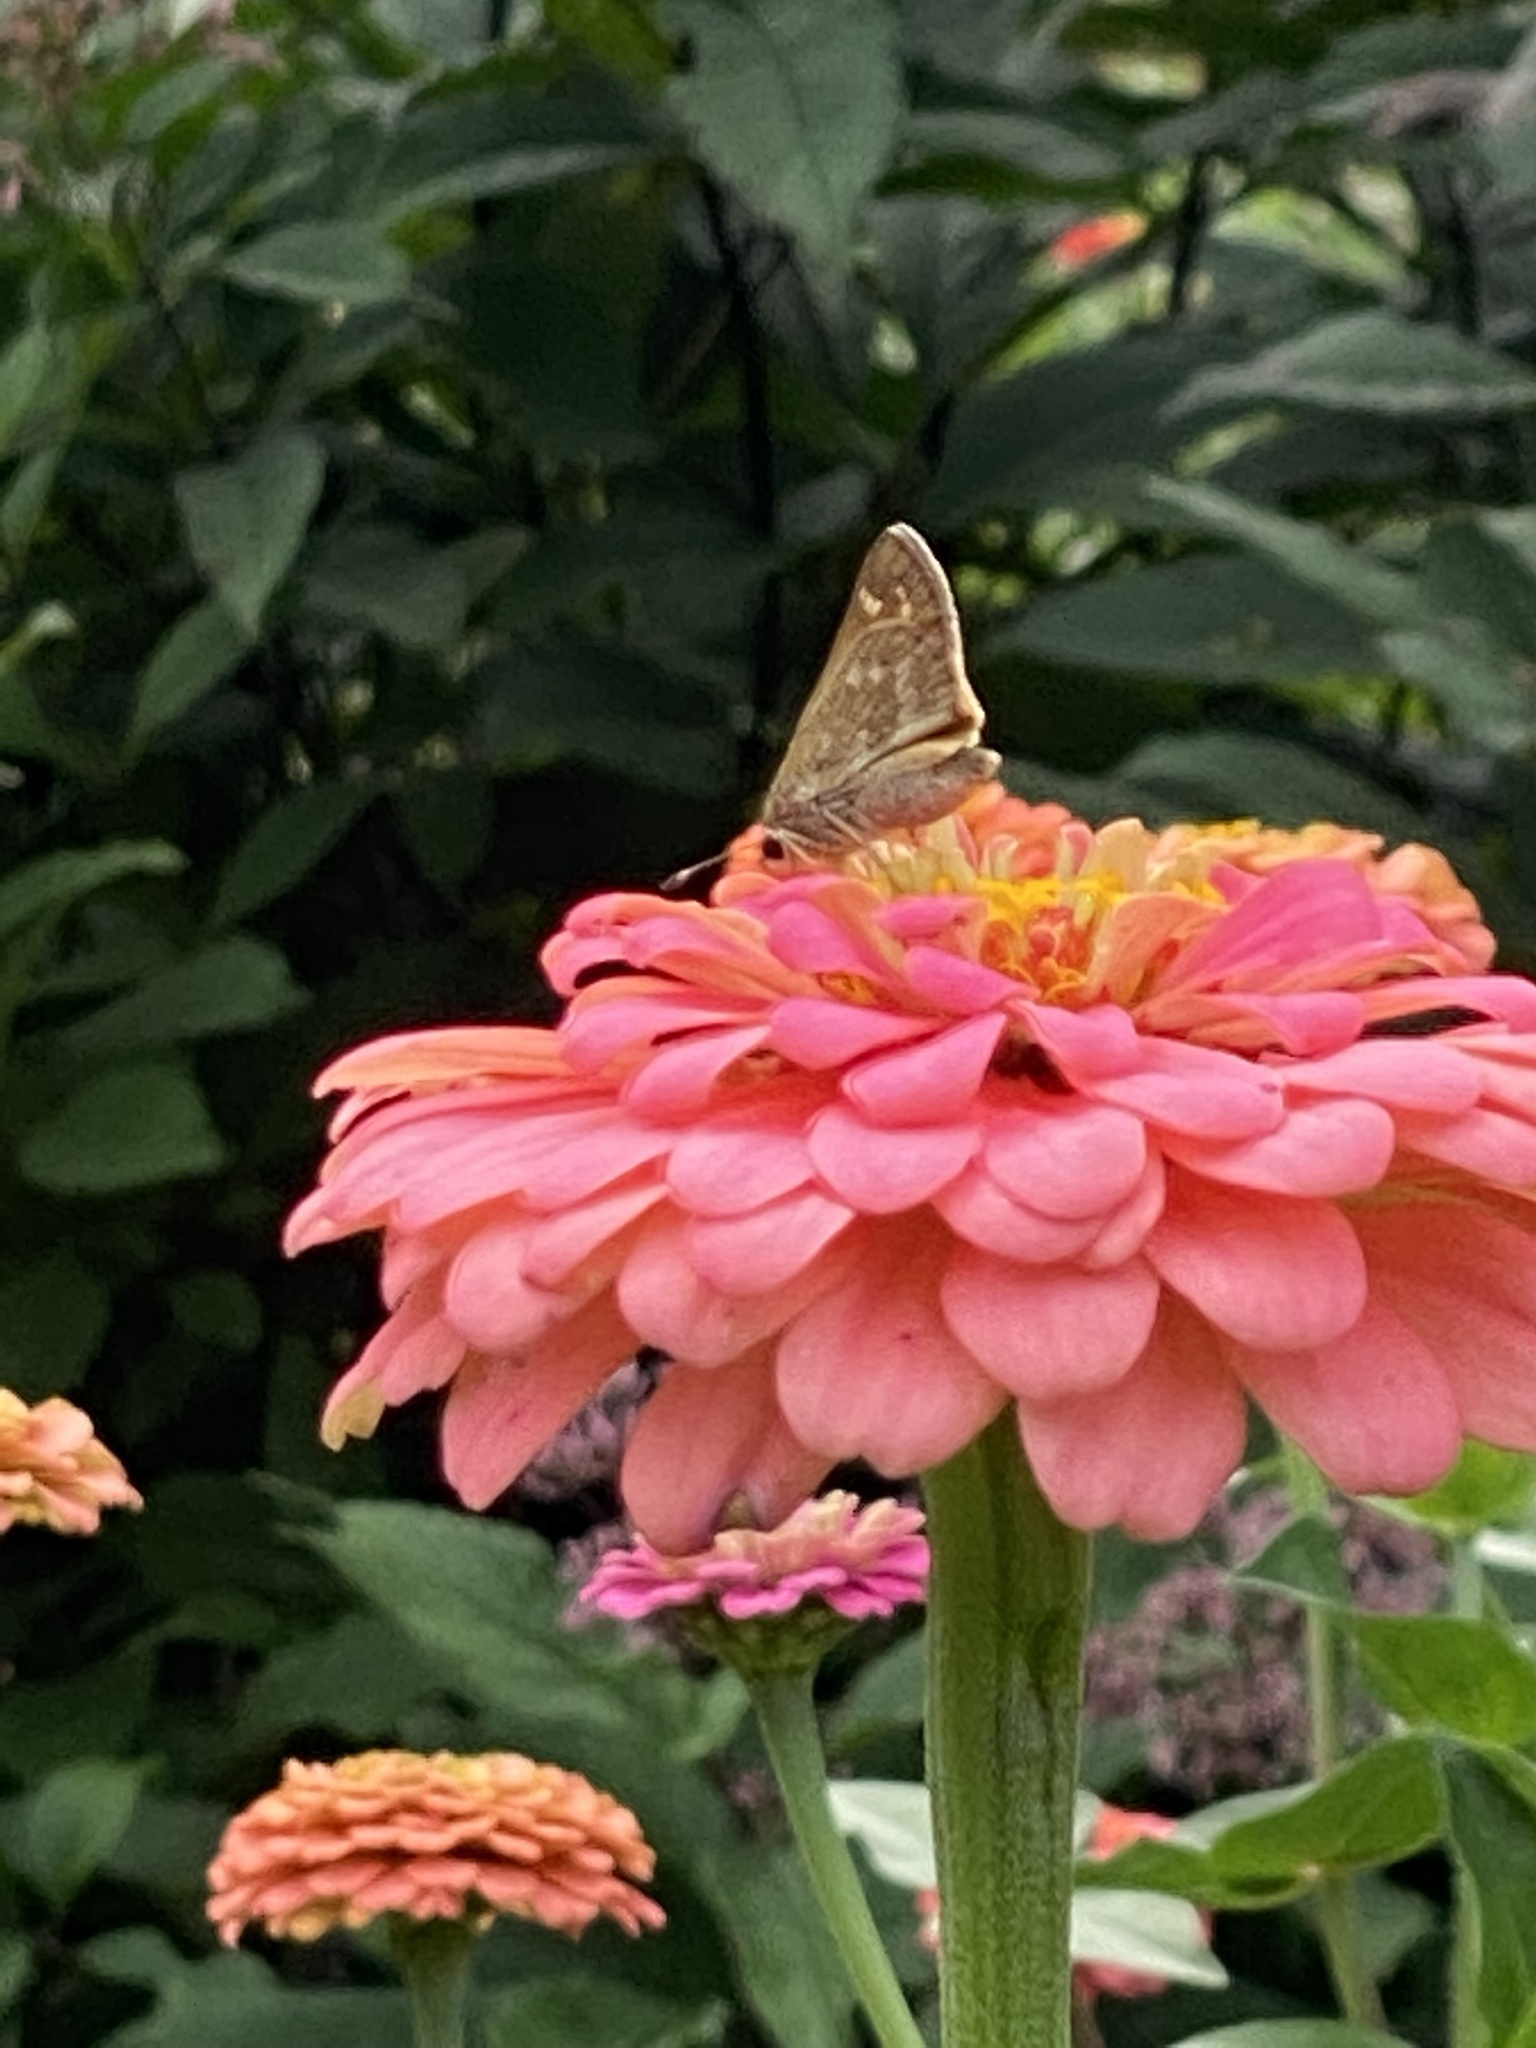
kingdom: Animalia
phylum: Arthropoda
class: Insecta
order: Lepidoptera
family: Hesperiidae
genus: Atalopedes
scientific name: Atalopedes
